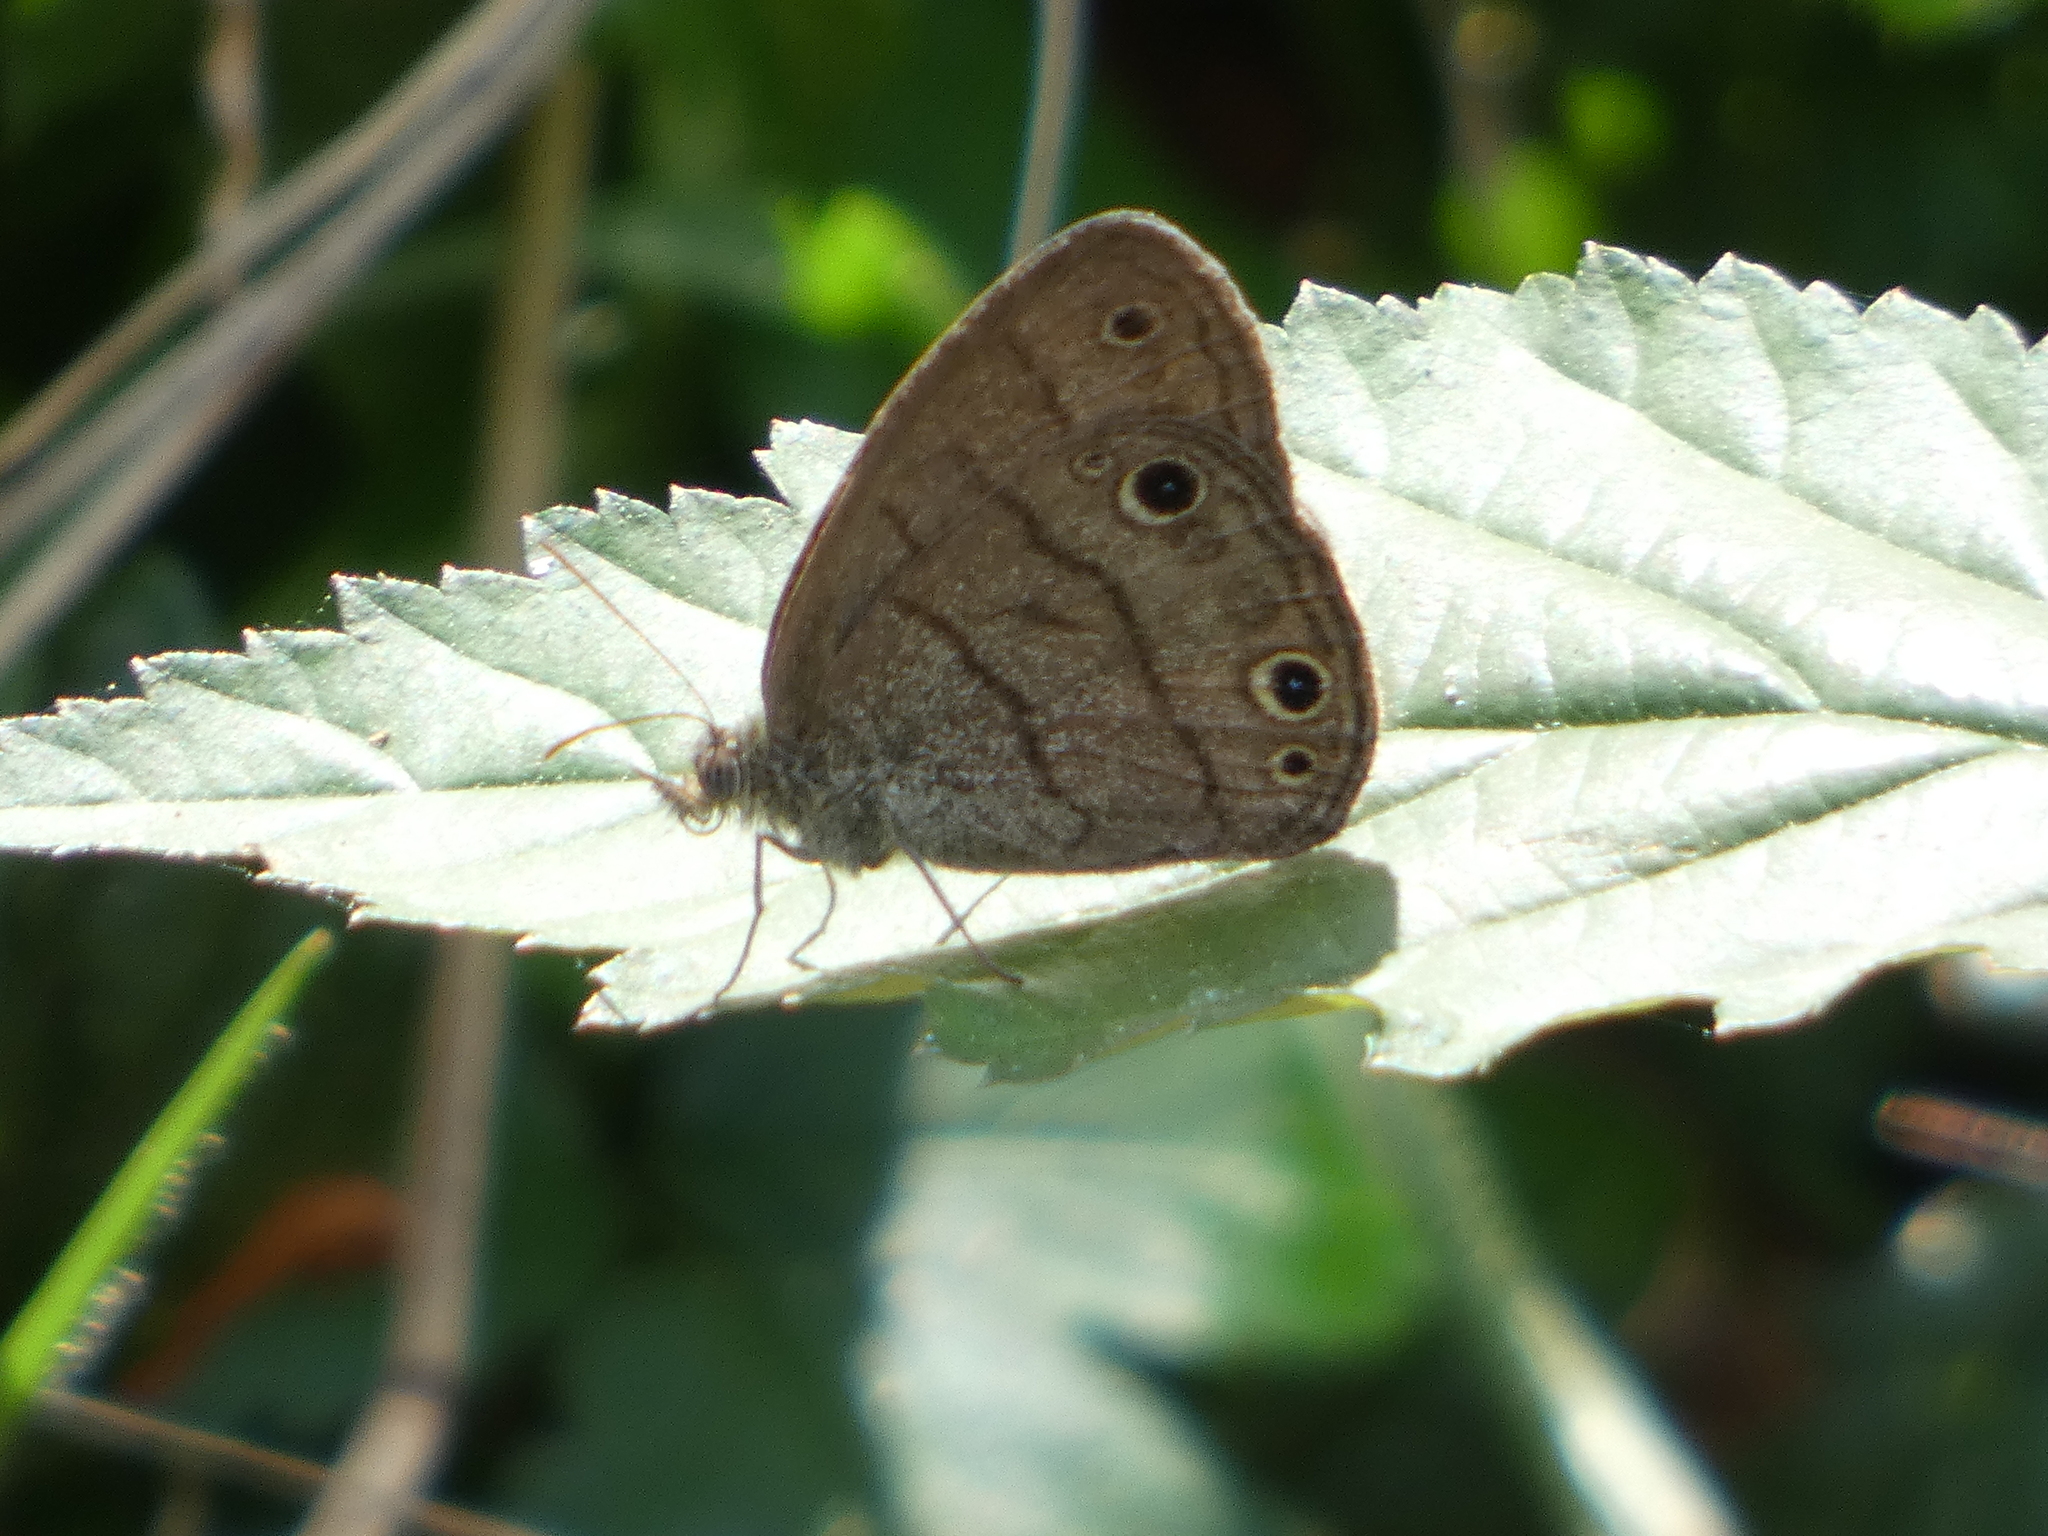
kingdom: Animalia
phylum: Arthropoda
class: Insecta
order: Lepidoptera
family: Nymphalidae
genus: Hermeuptychia
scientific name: Hermeuptychia hermes
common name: Hermes satyr
